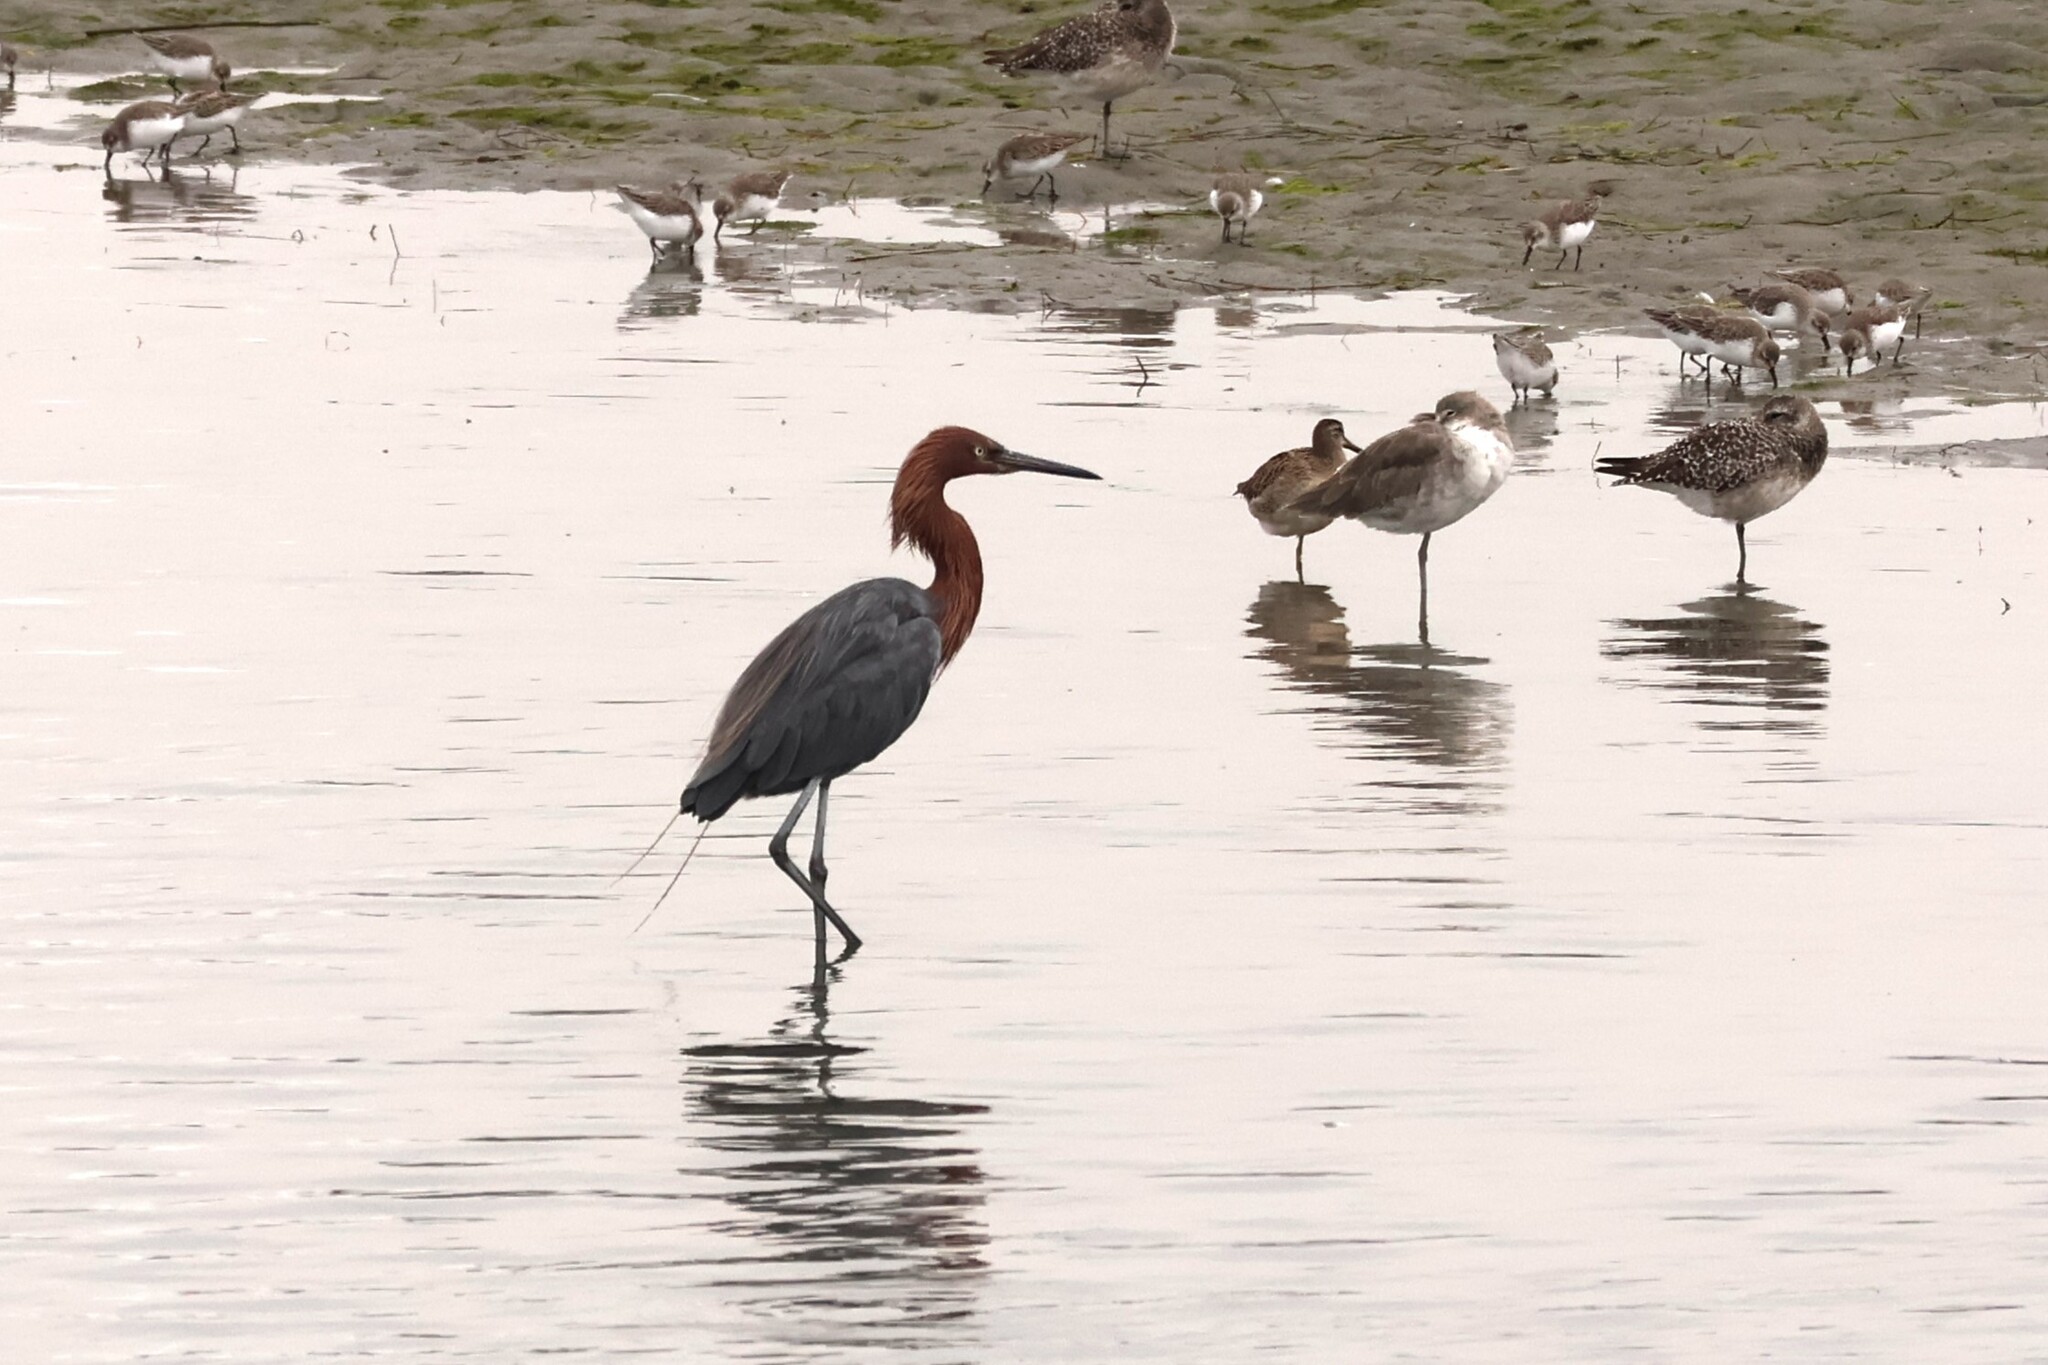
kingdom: Animalia
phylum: Chordata
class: Aves
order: Pelecaniformes
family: Ardeidae
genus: Egretta
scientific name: Egretta rufescens
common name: Reddish egret
